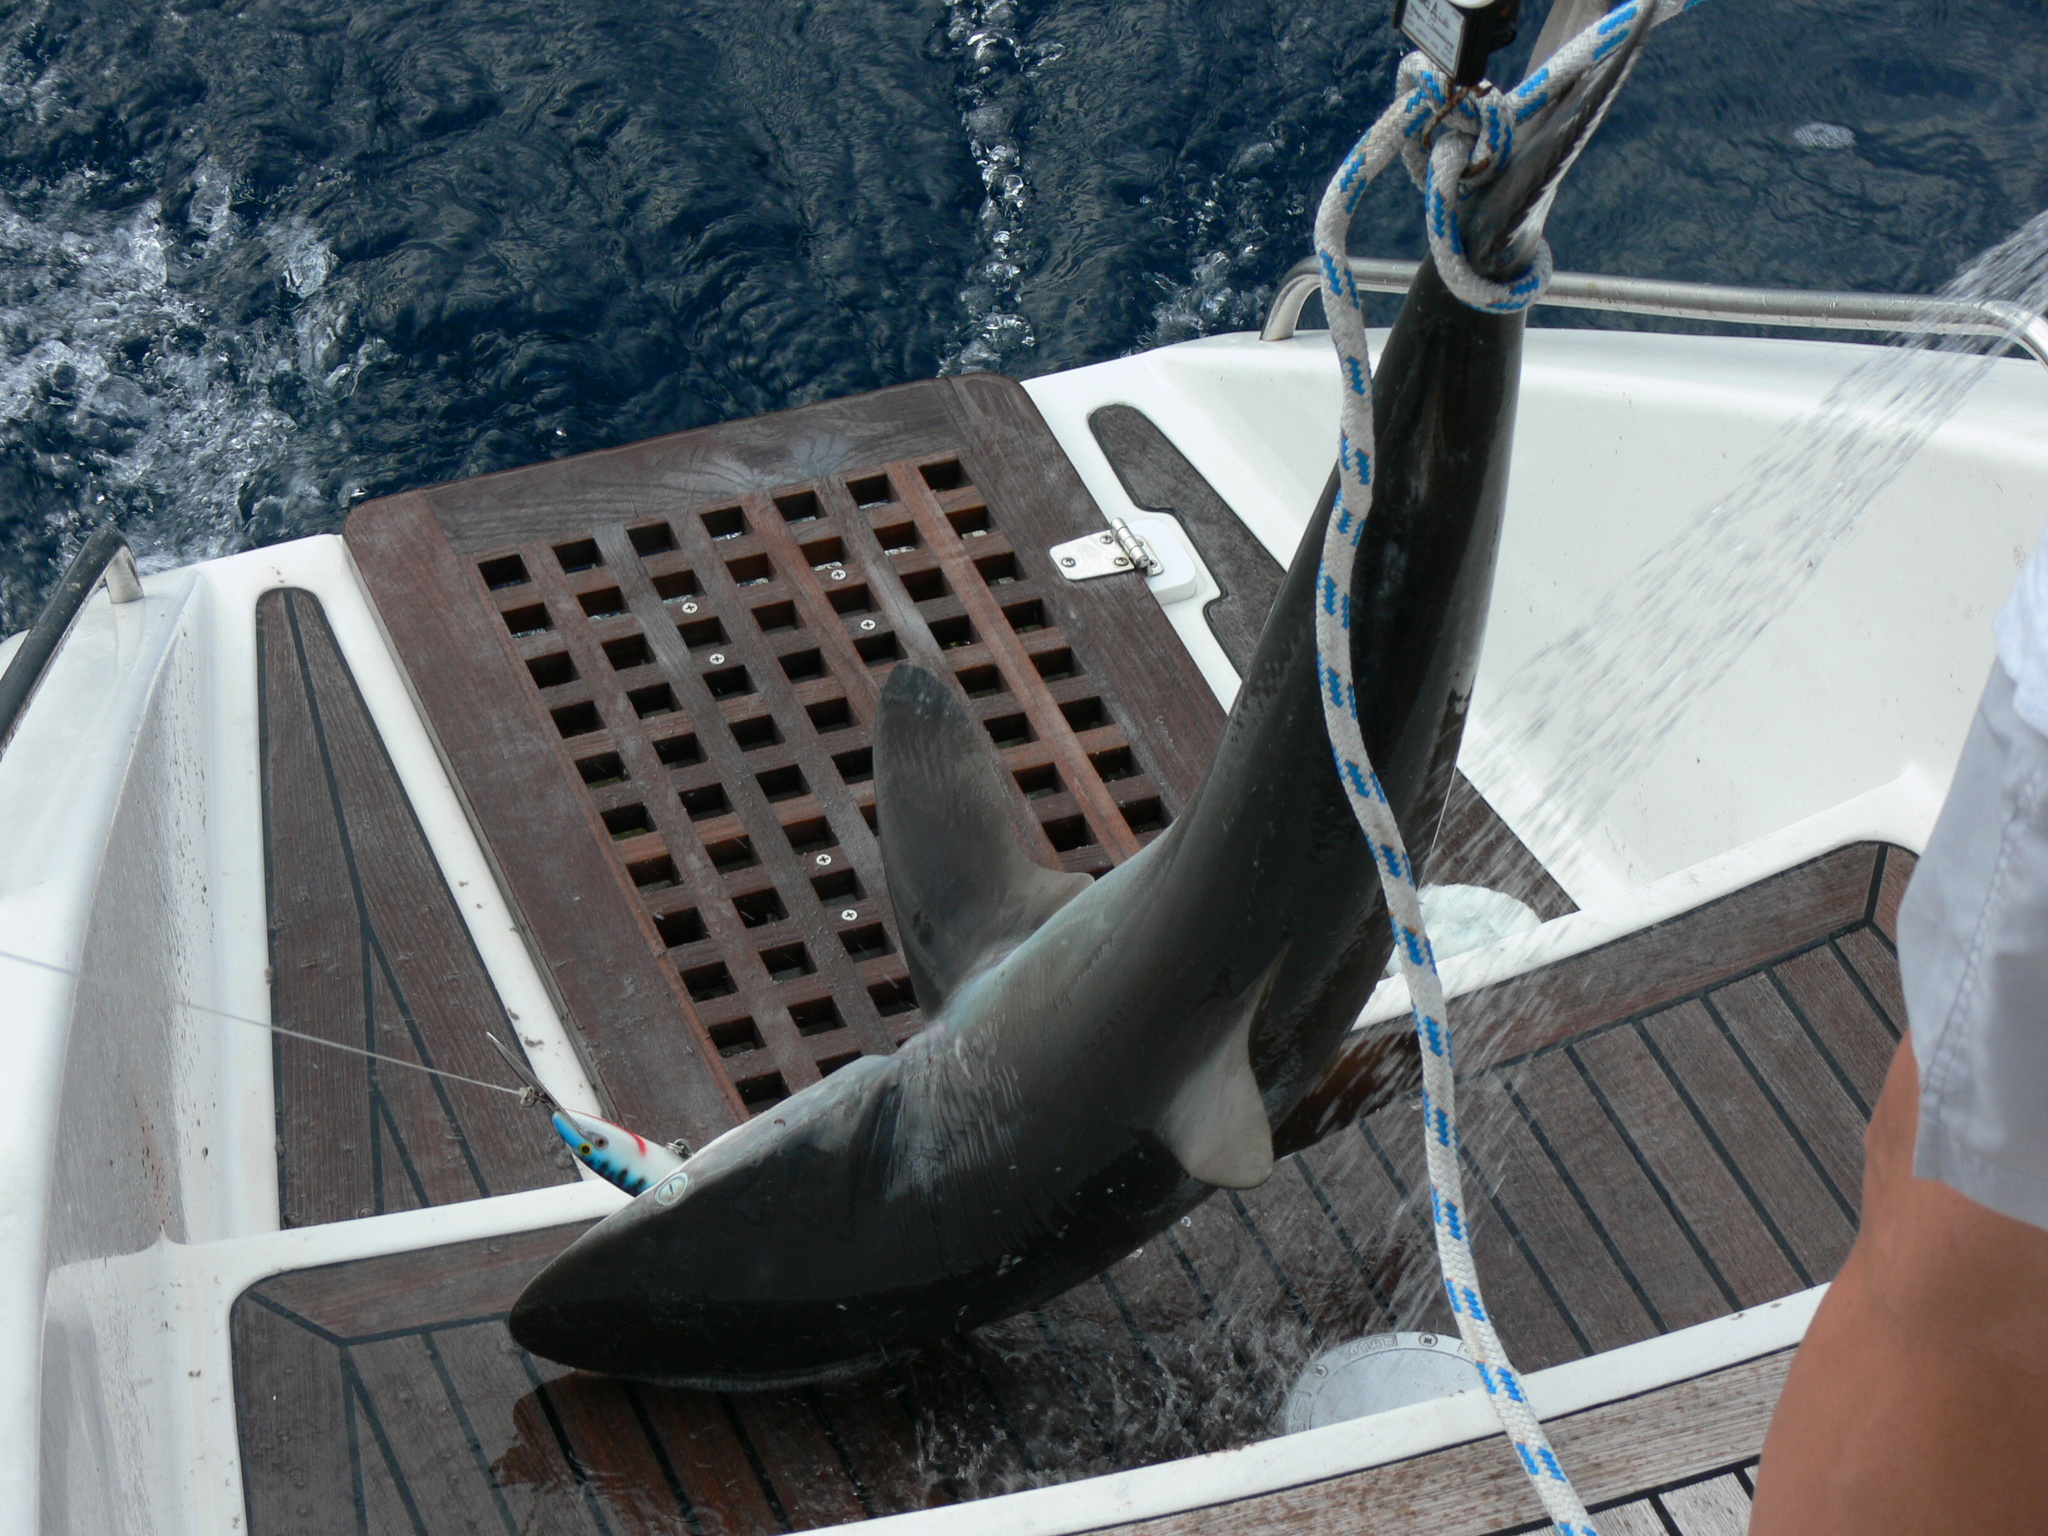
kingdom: Animalia
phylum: Chordata
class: Elasmobranchii
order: Carcharhiniformes
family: Carcharhinidae
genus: Carcharhinus
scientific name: Carcharhinus falciformis
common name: Silky shark
